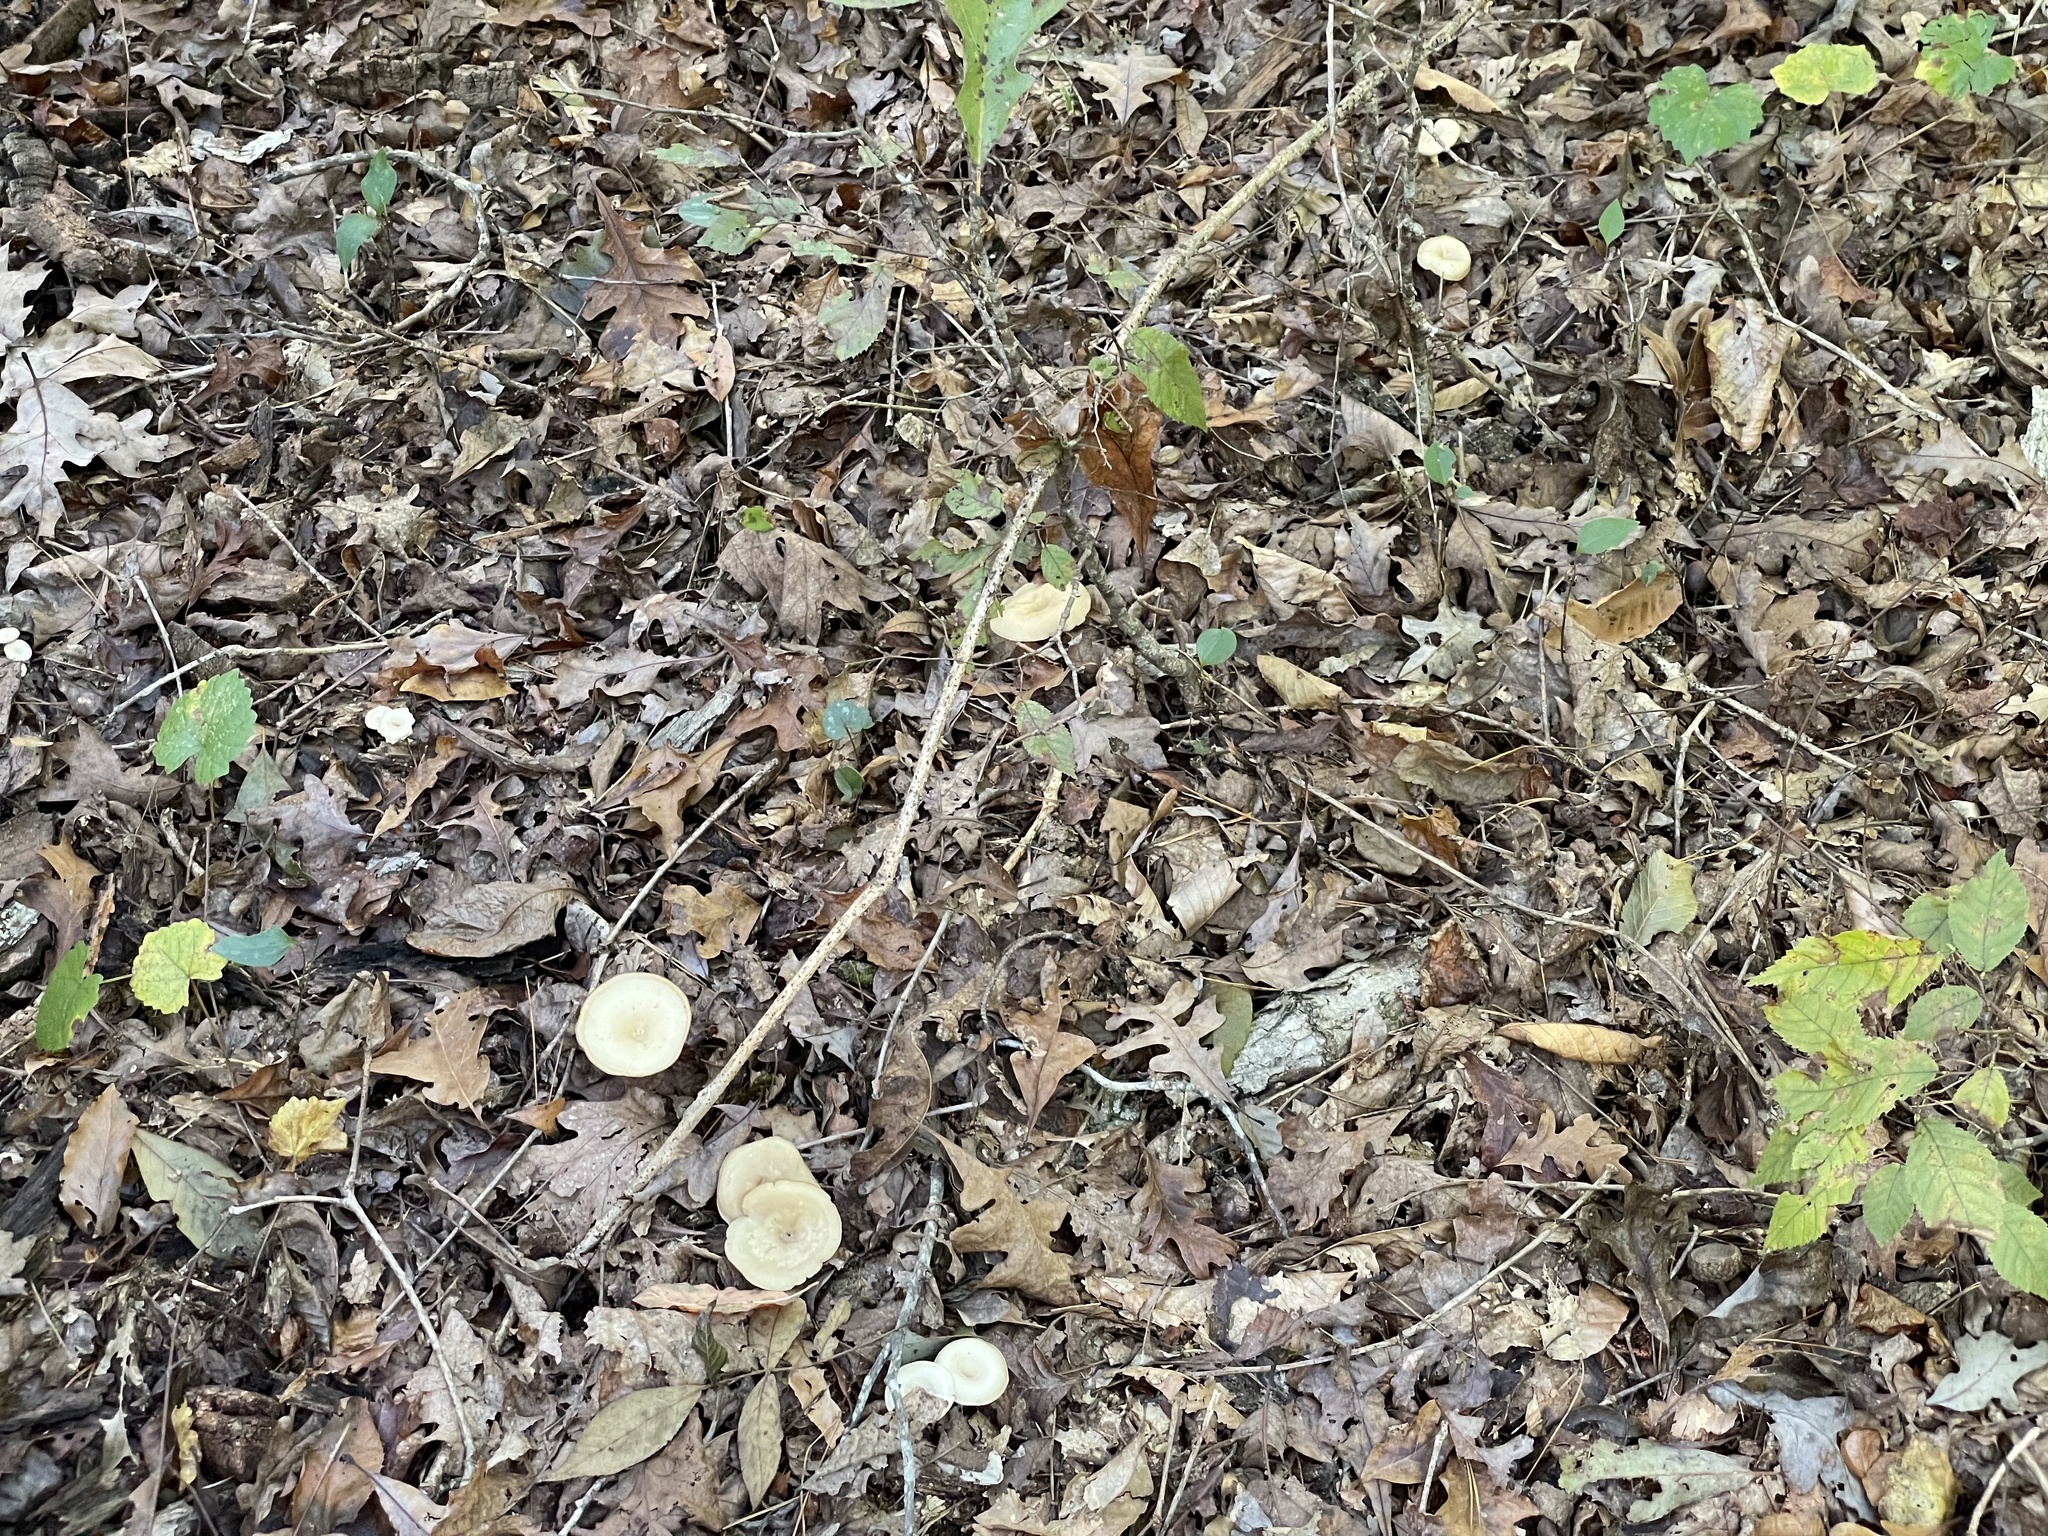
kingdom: Fungi
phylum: Basidiomycota
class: Agaricomycetes
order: Agaricales
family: Tricholomataceae
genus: Infundibulicybe
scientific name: Infundibulicybe gibba
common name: Common funnel
